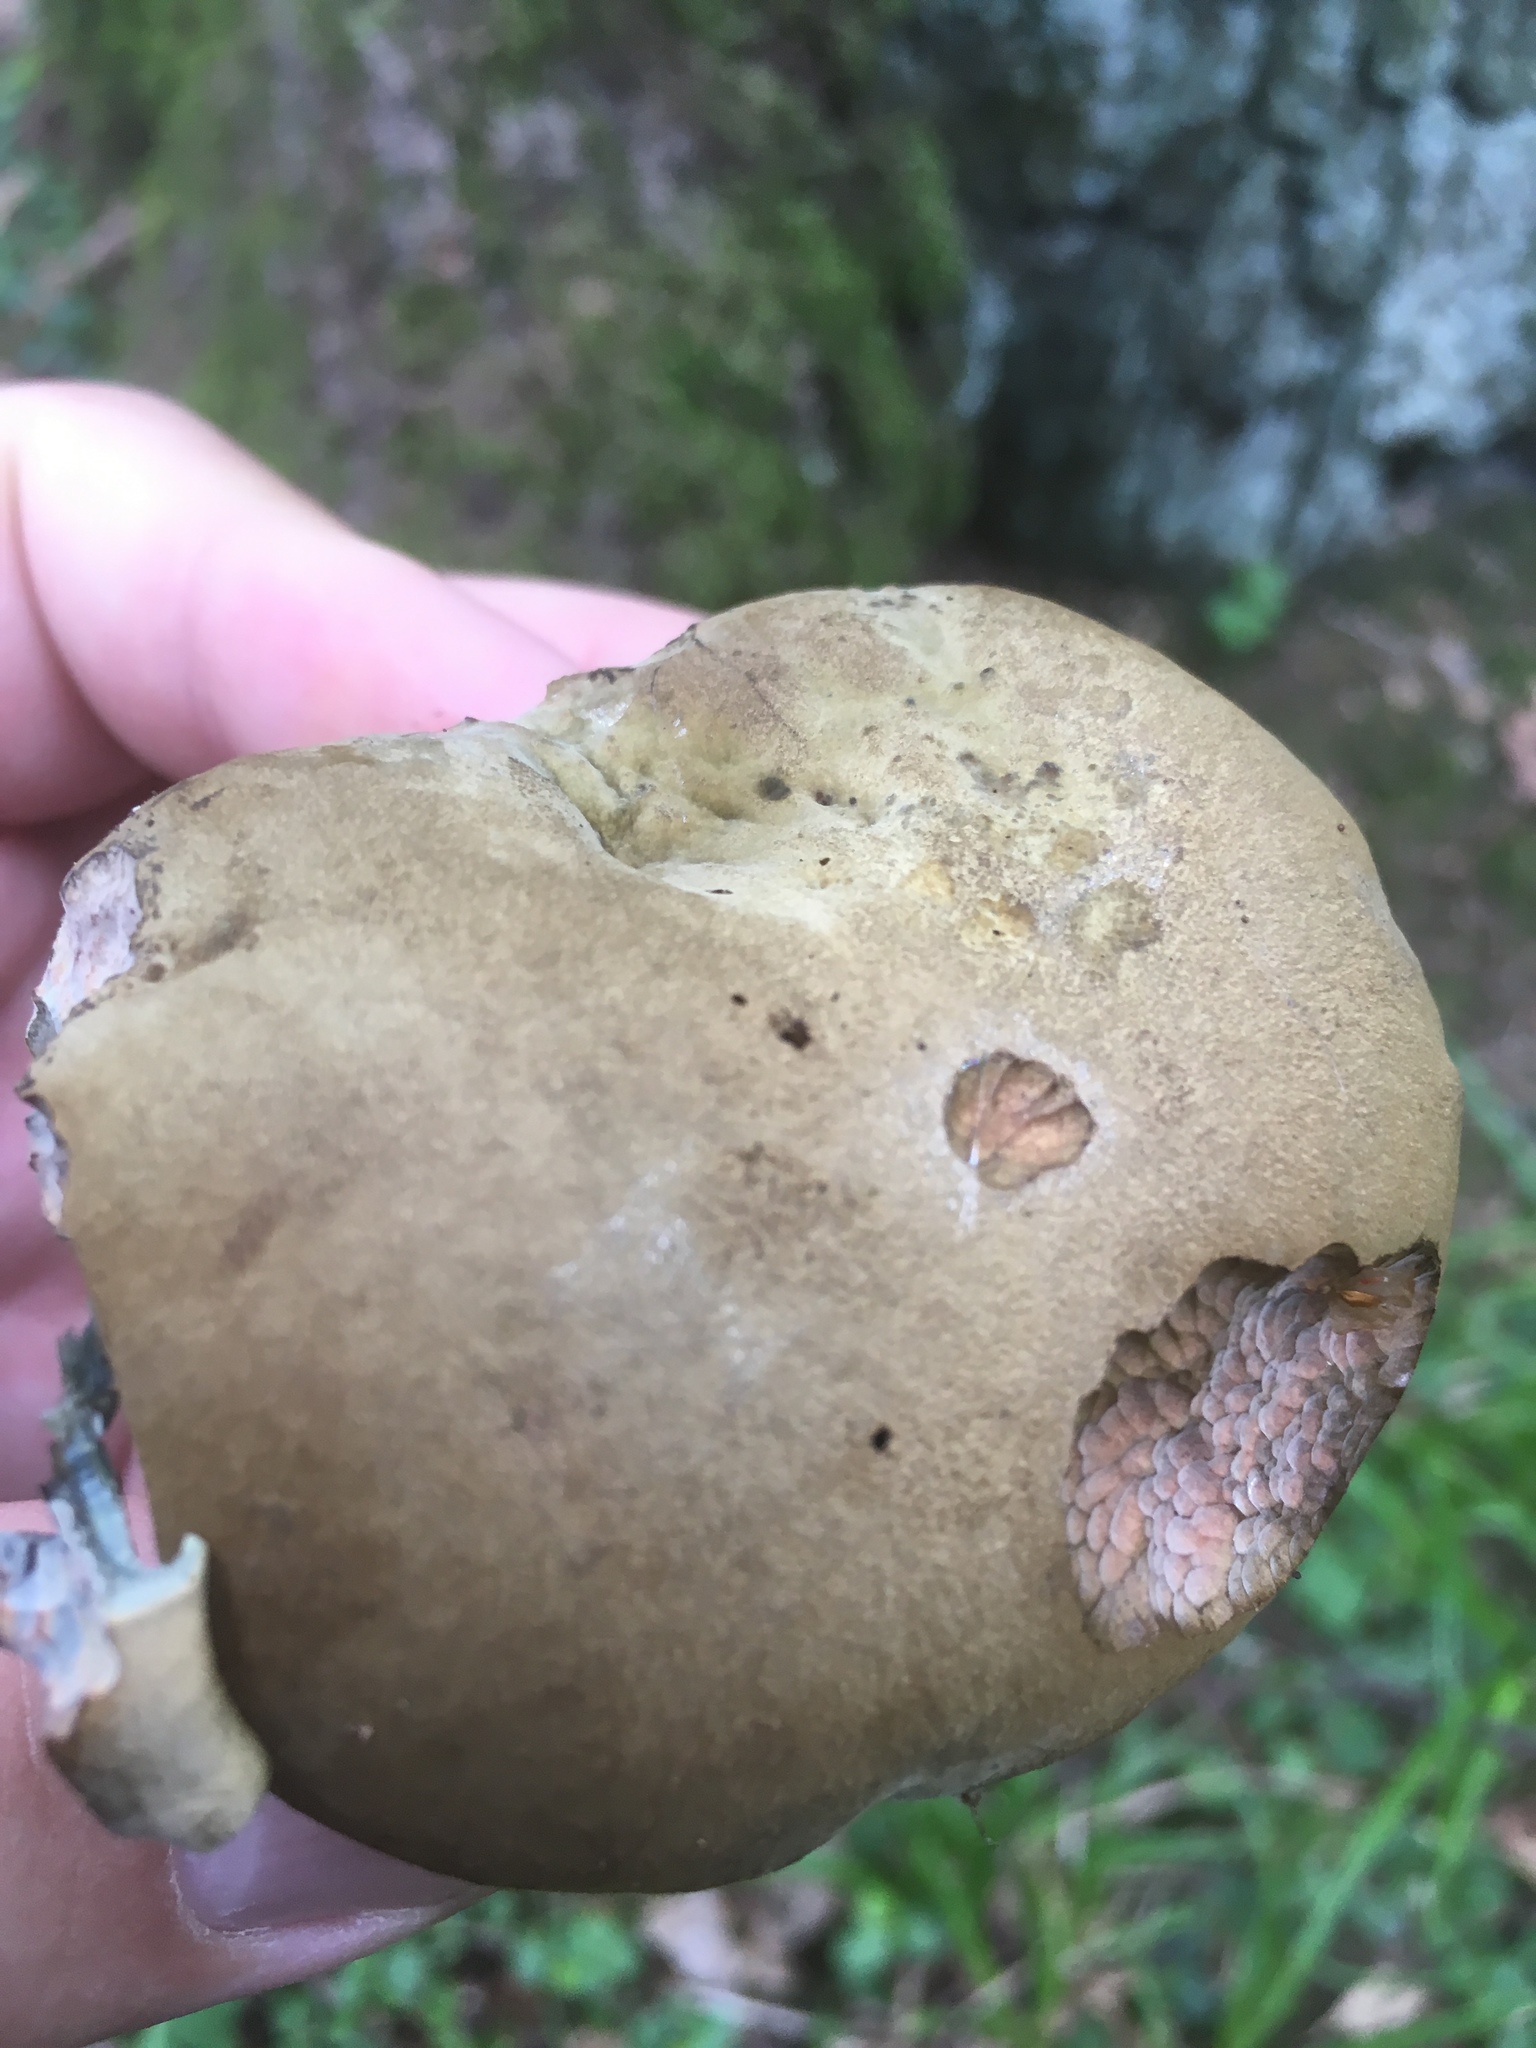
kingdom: Fungi
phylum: Basidiomycota
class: Agaricomycetes
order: Boletales
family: Boletaceae
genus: Suillellus
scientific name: Suillellus luridus
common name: Lurid bolete
